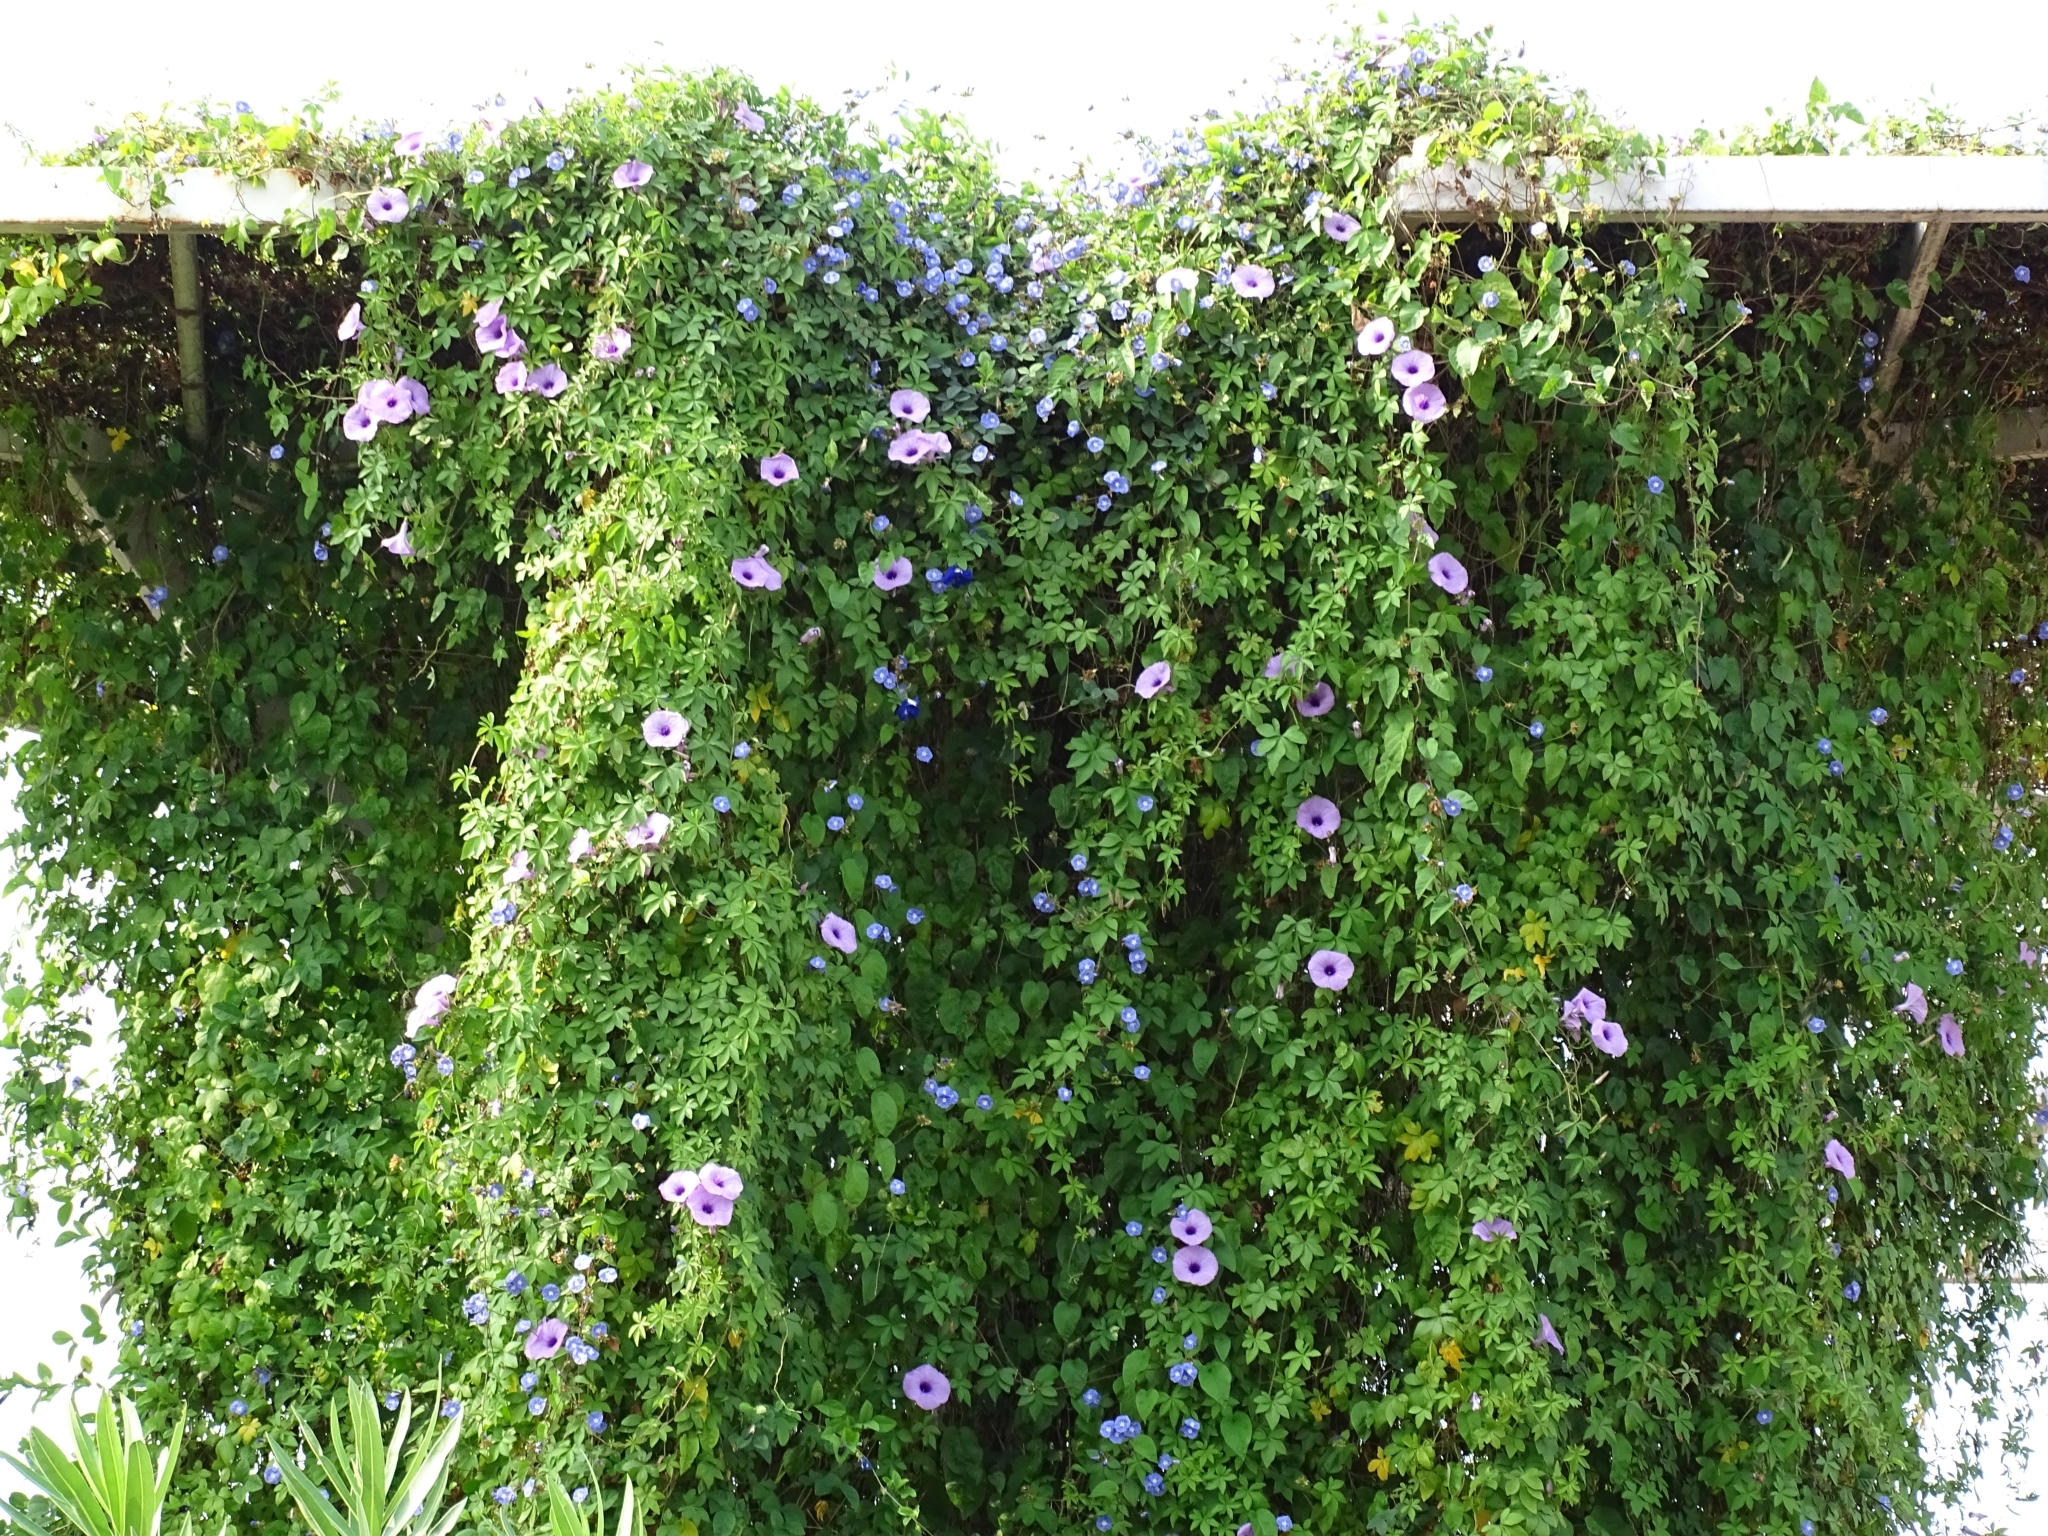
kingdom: Plantae
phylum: Tracheophyta
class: Magnoliopsida
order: Solanales
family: Convolvulaceae
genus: Ipomoea
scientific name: Ipomoea cairica
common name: Mile a minute vine
